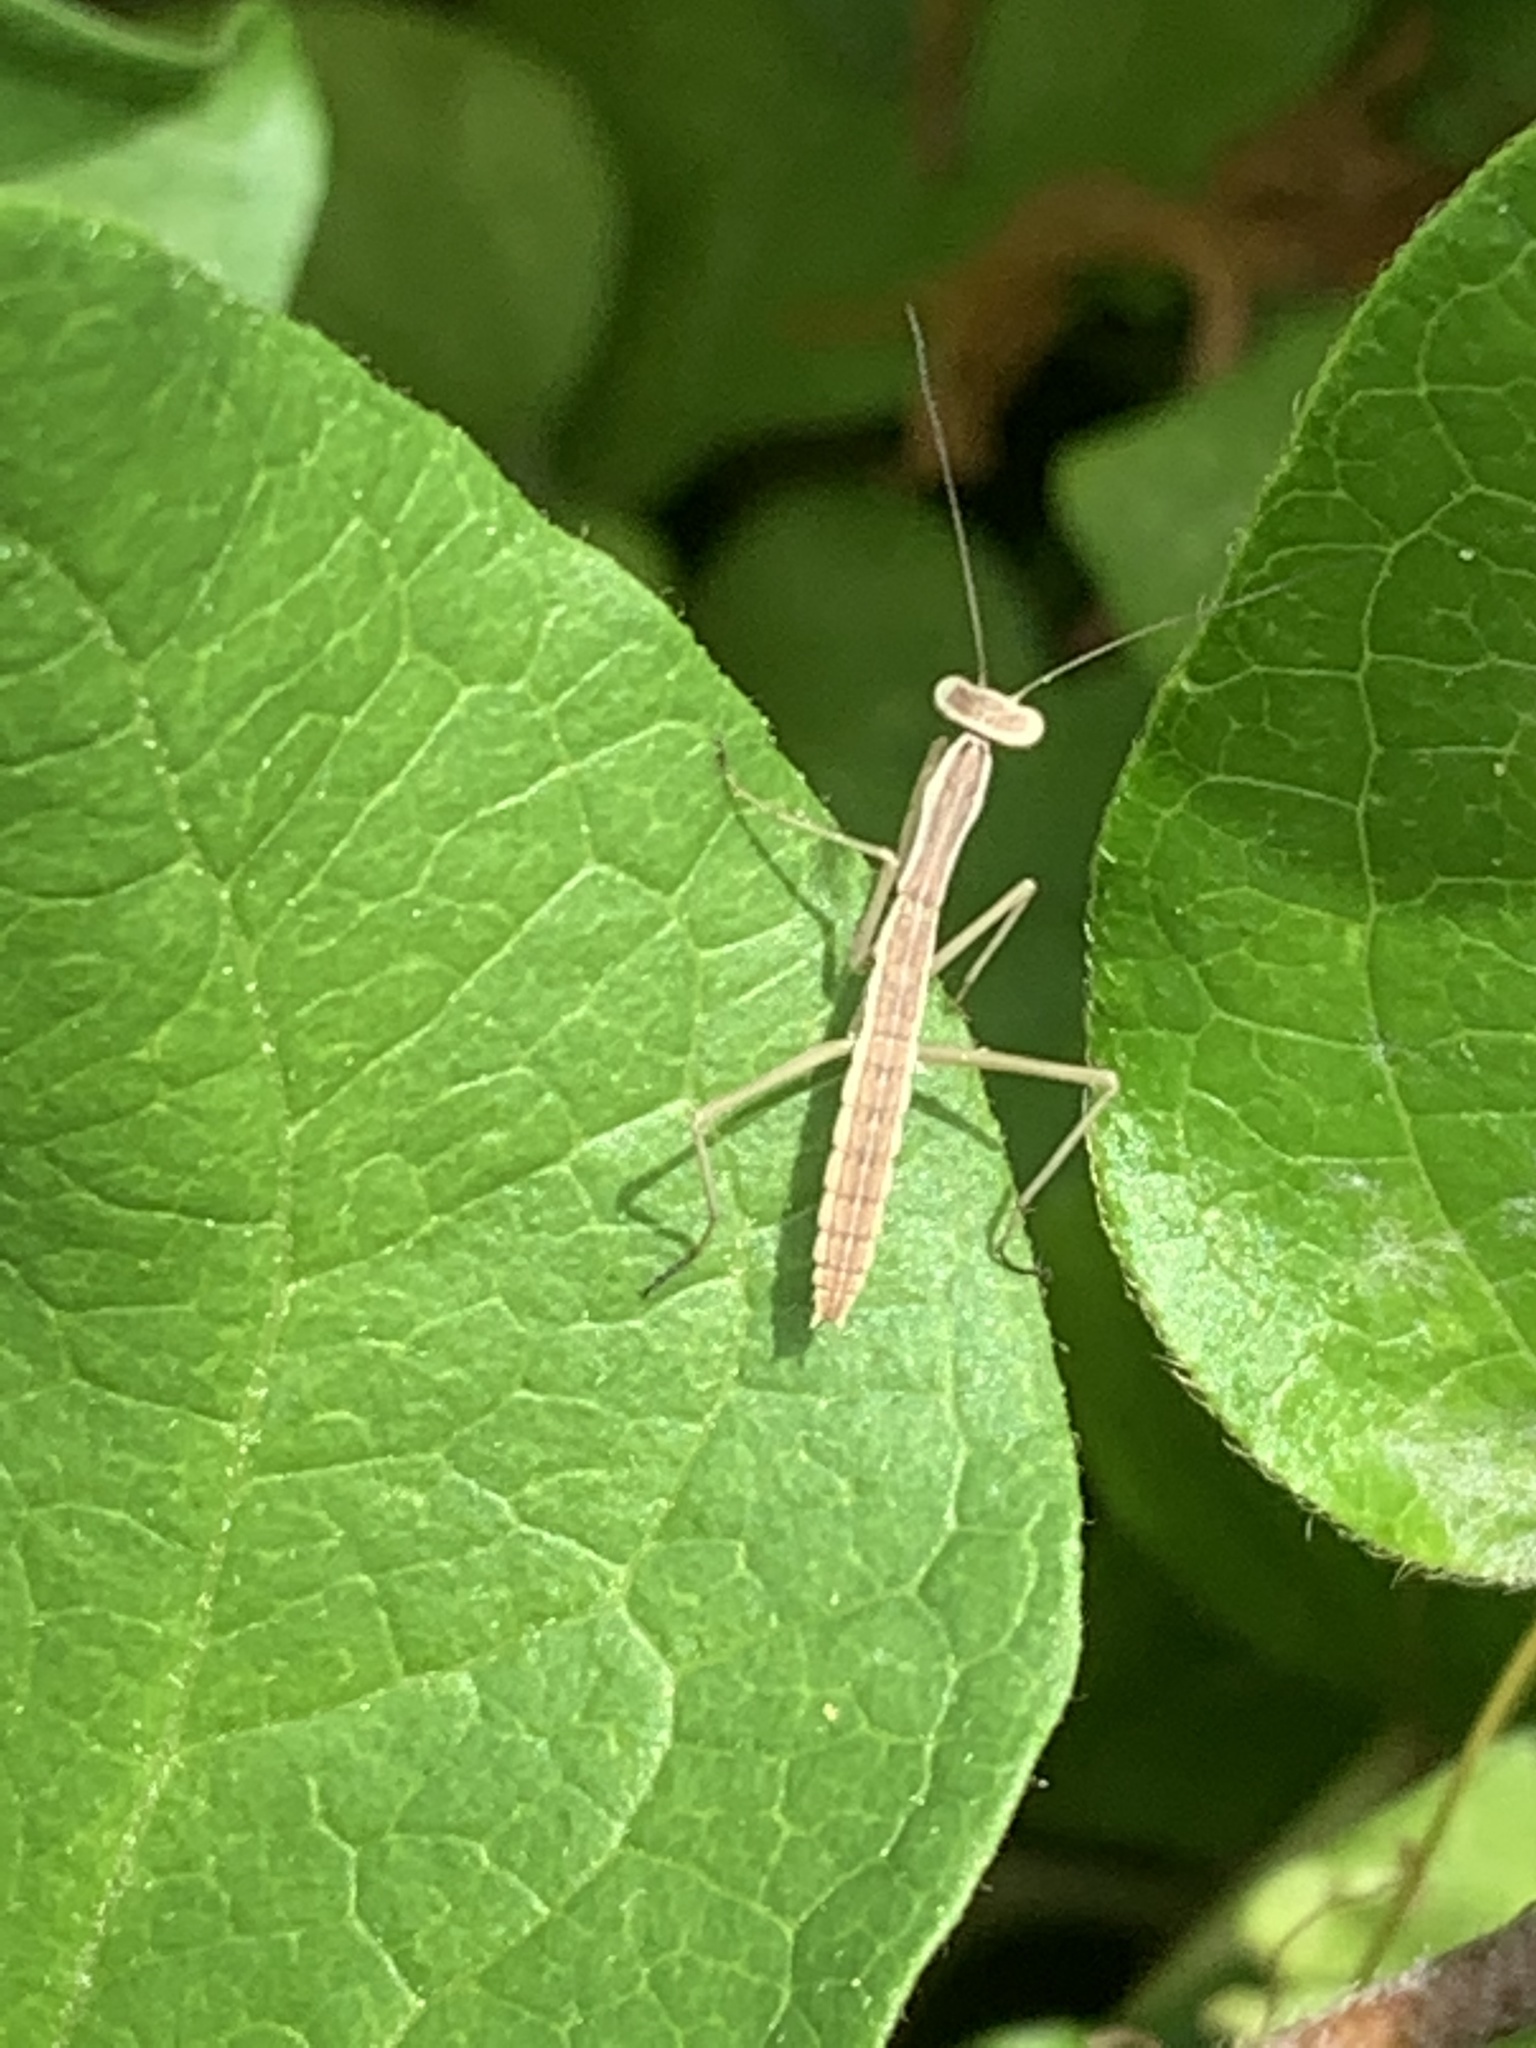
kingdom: Animalia
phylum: Arthropoda
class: Insecta
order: Mantodea
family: Mantidae
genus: Tenodera
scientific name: Tenodera sinensis
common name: Chinese mantis
